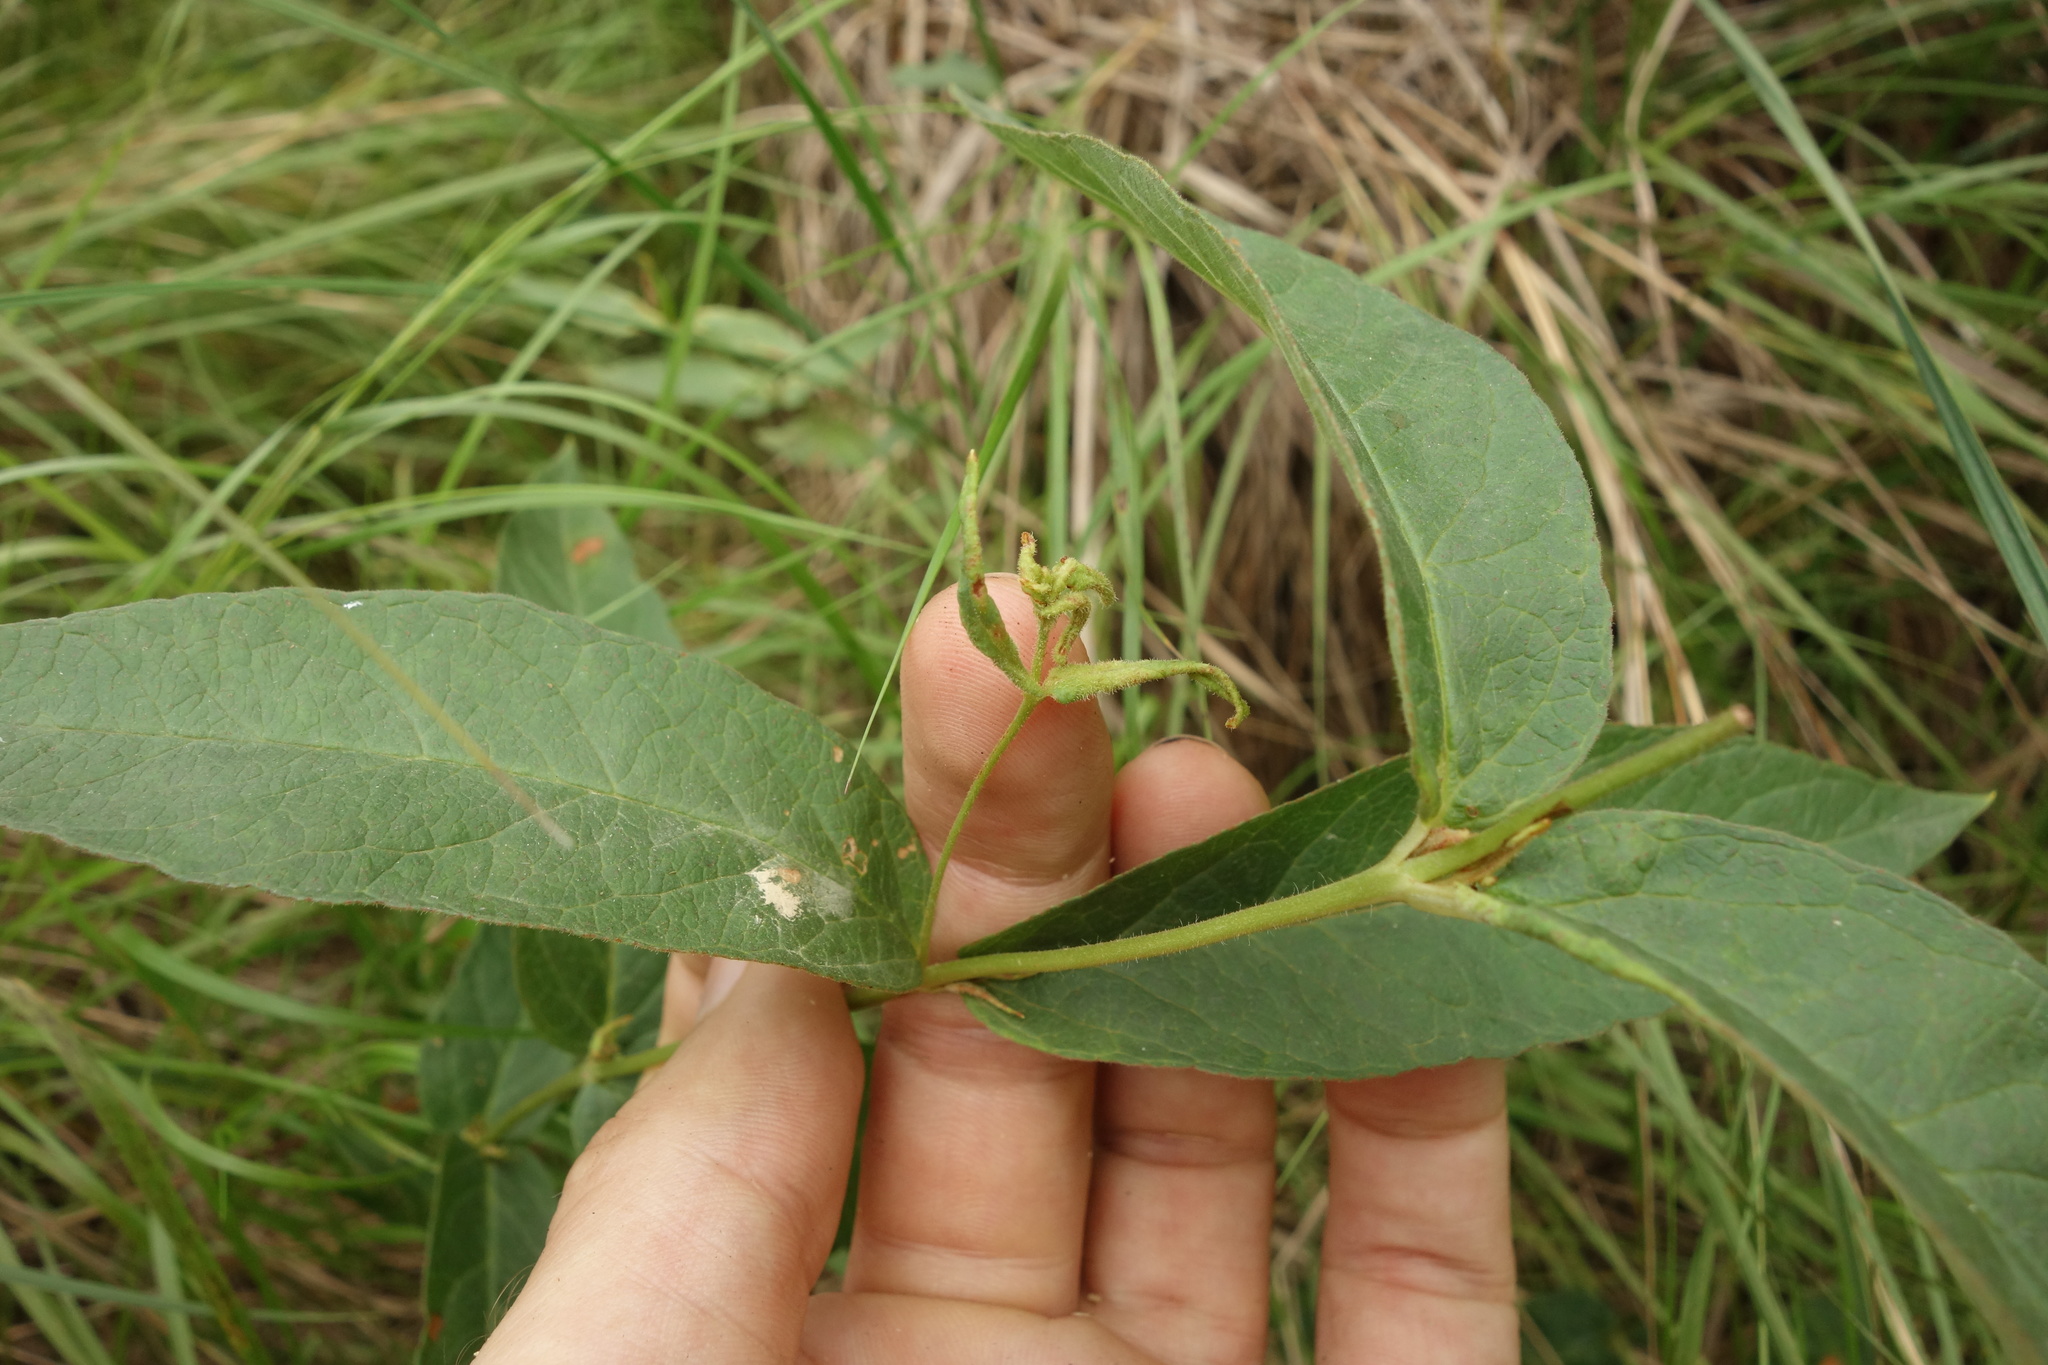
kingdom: Plantae
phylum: Tracheophyta
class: Magnoliopsida
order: Ericales
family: Primulaceae
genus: Lysimachia
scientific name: Lysimachia vulgaris
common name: Yellow loosestrife
